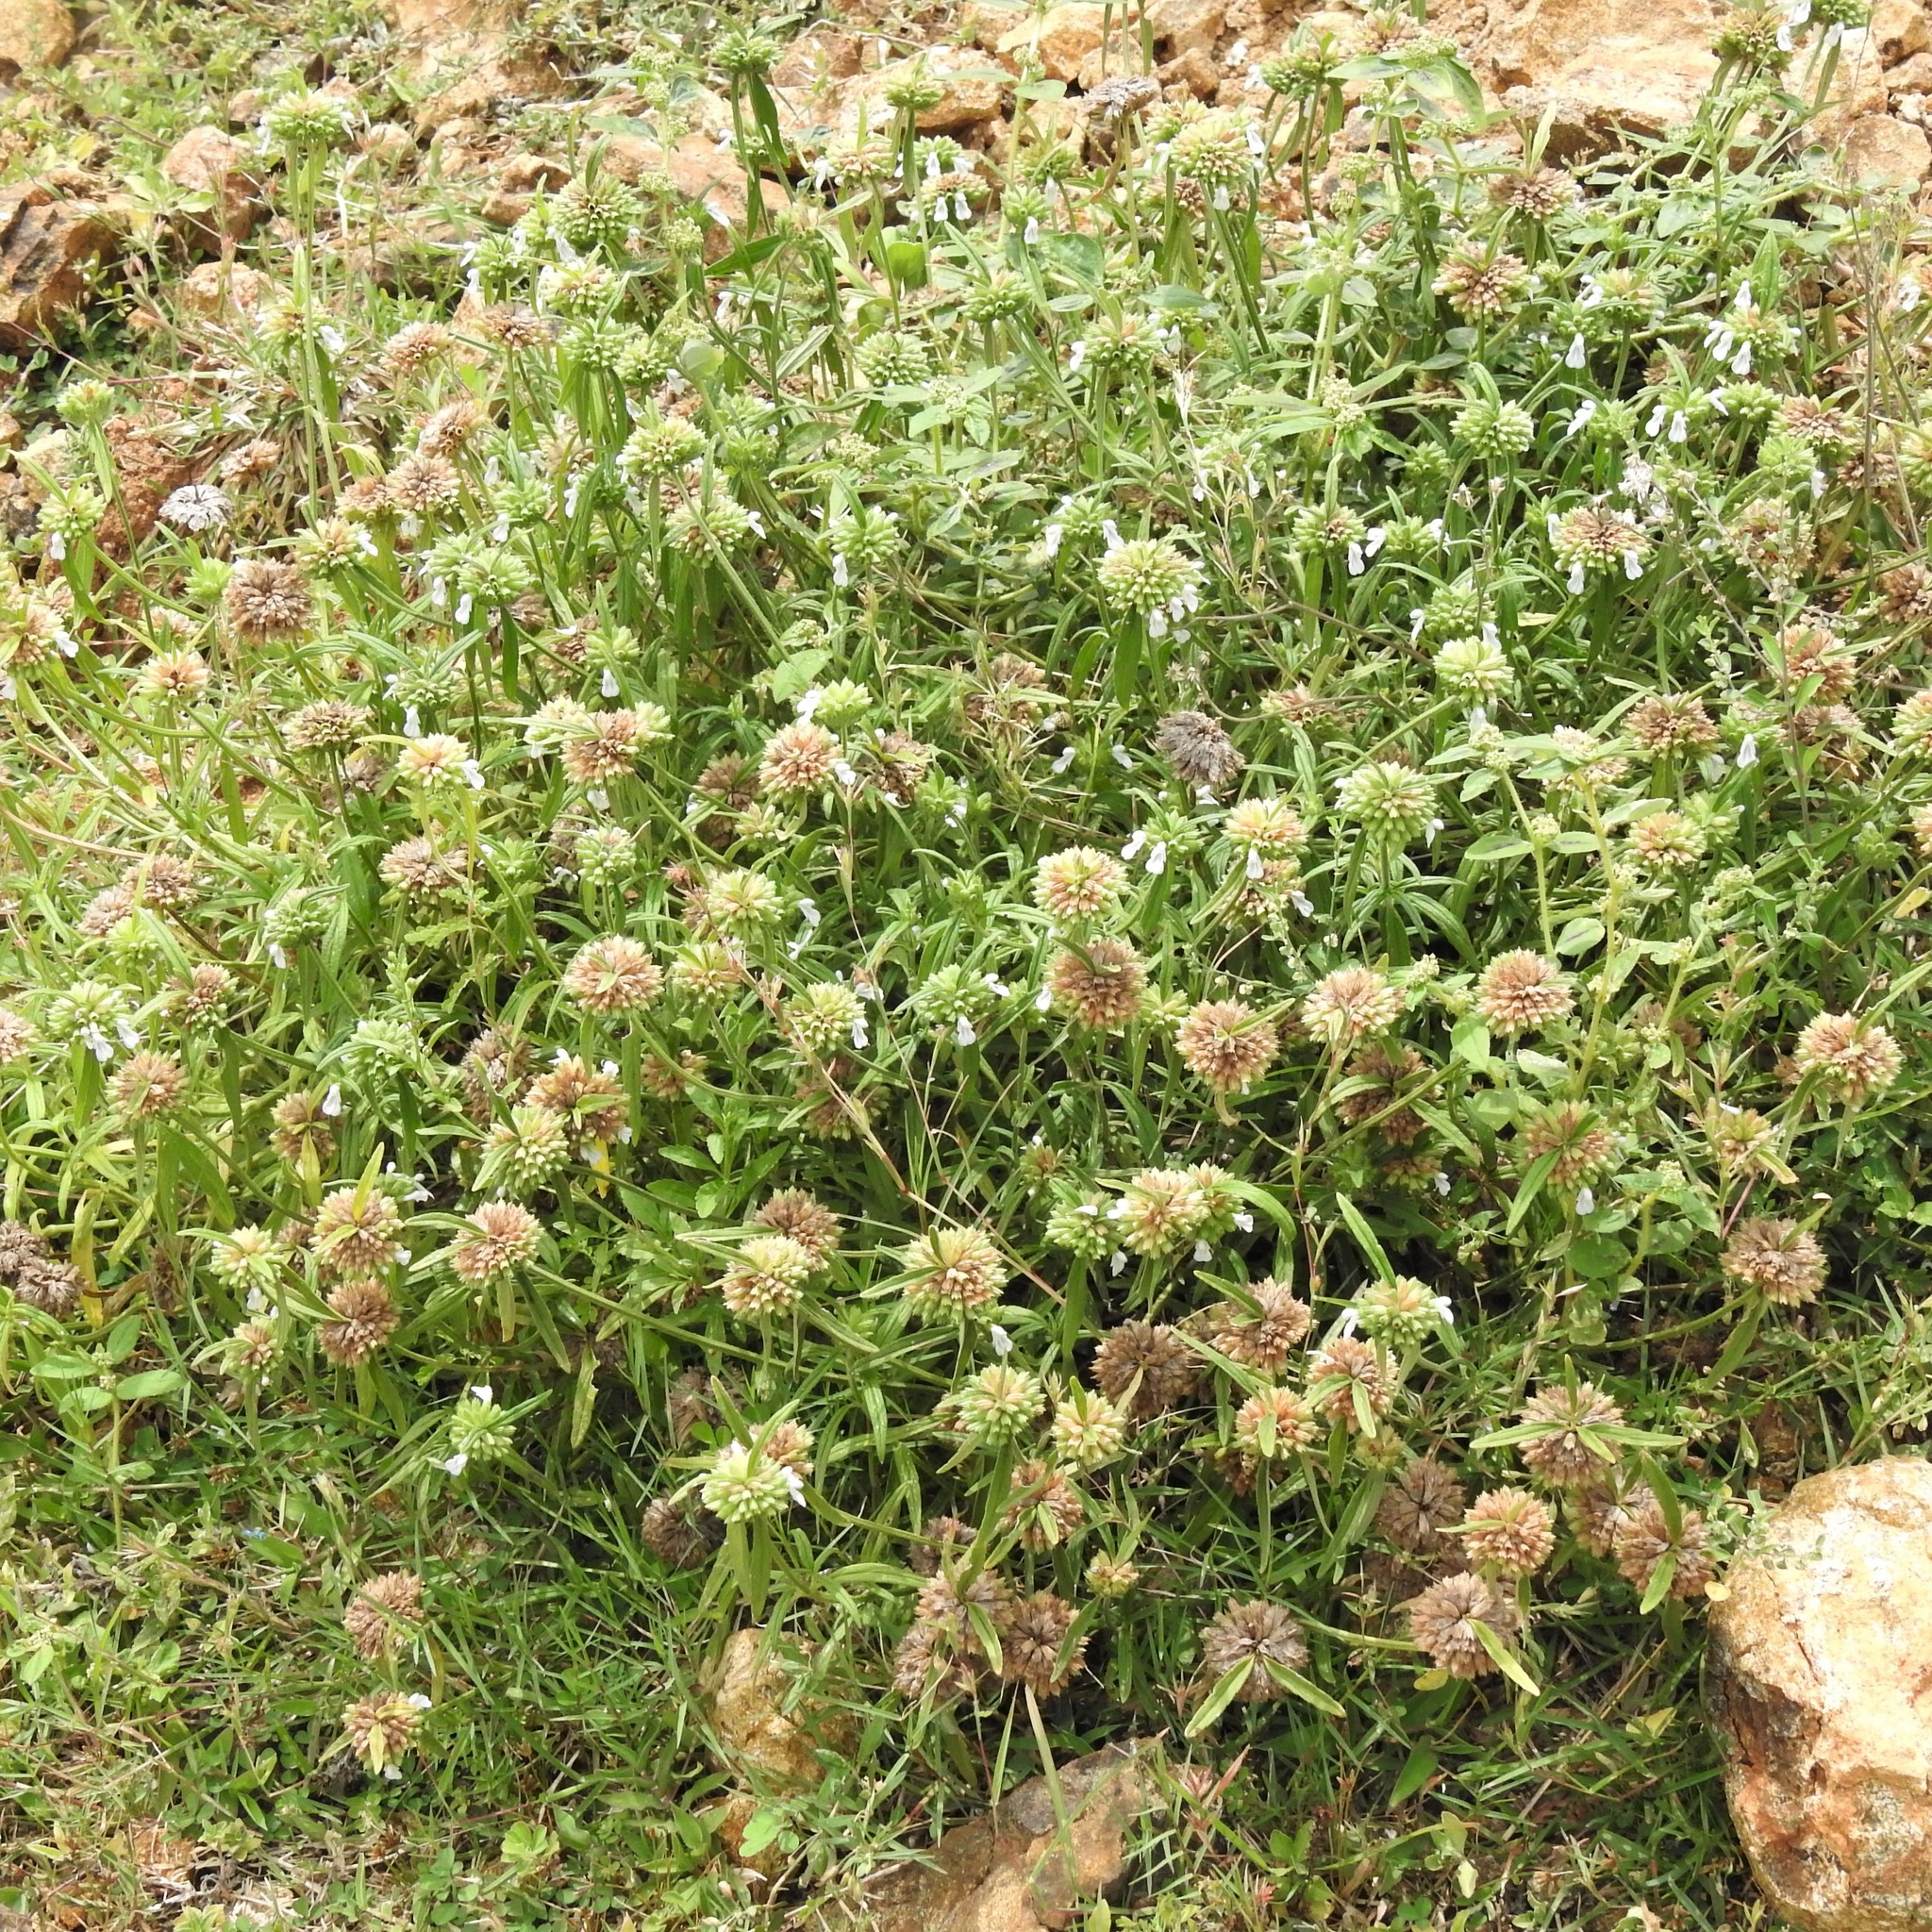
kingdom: Plantae
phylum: Tracheophyta
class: Magnoliopsida
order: Lamiales
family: Lamiaceae
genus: Leucas
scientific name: Leucas aspera
